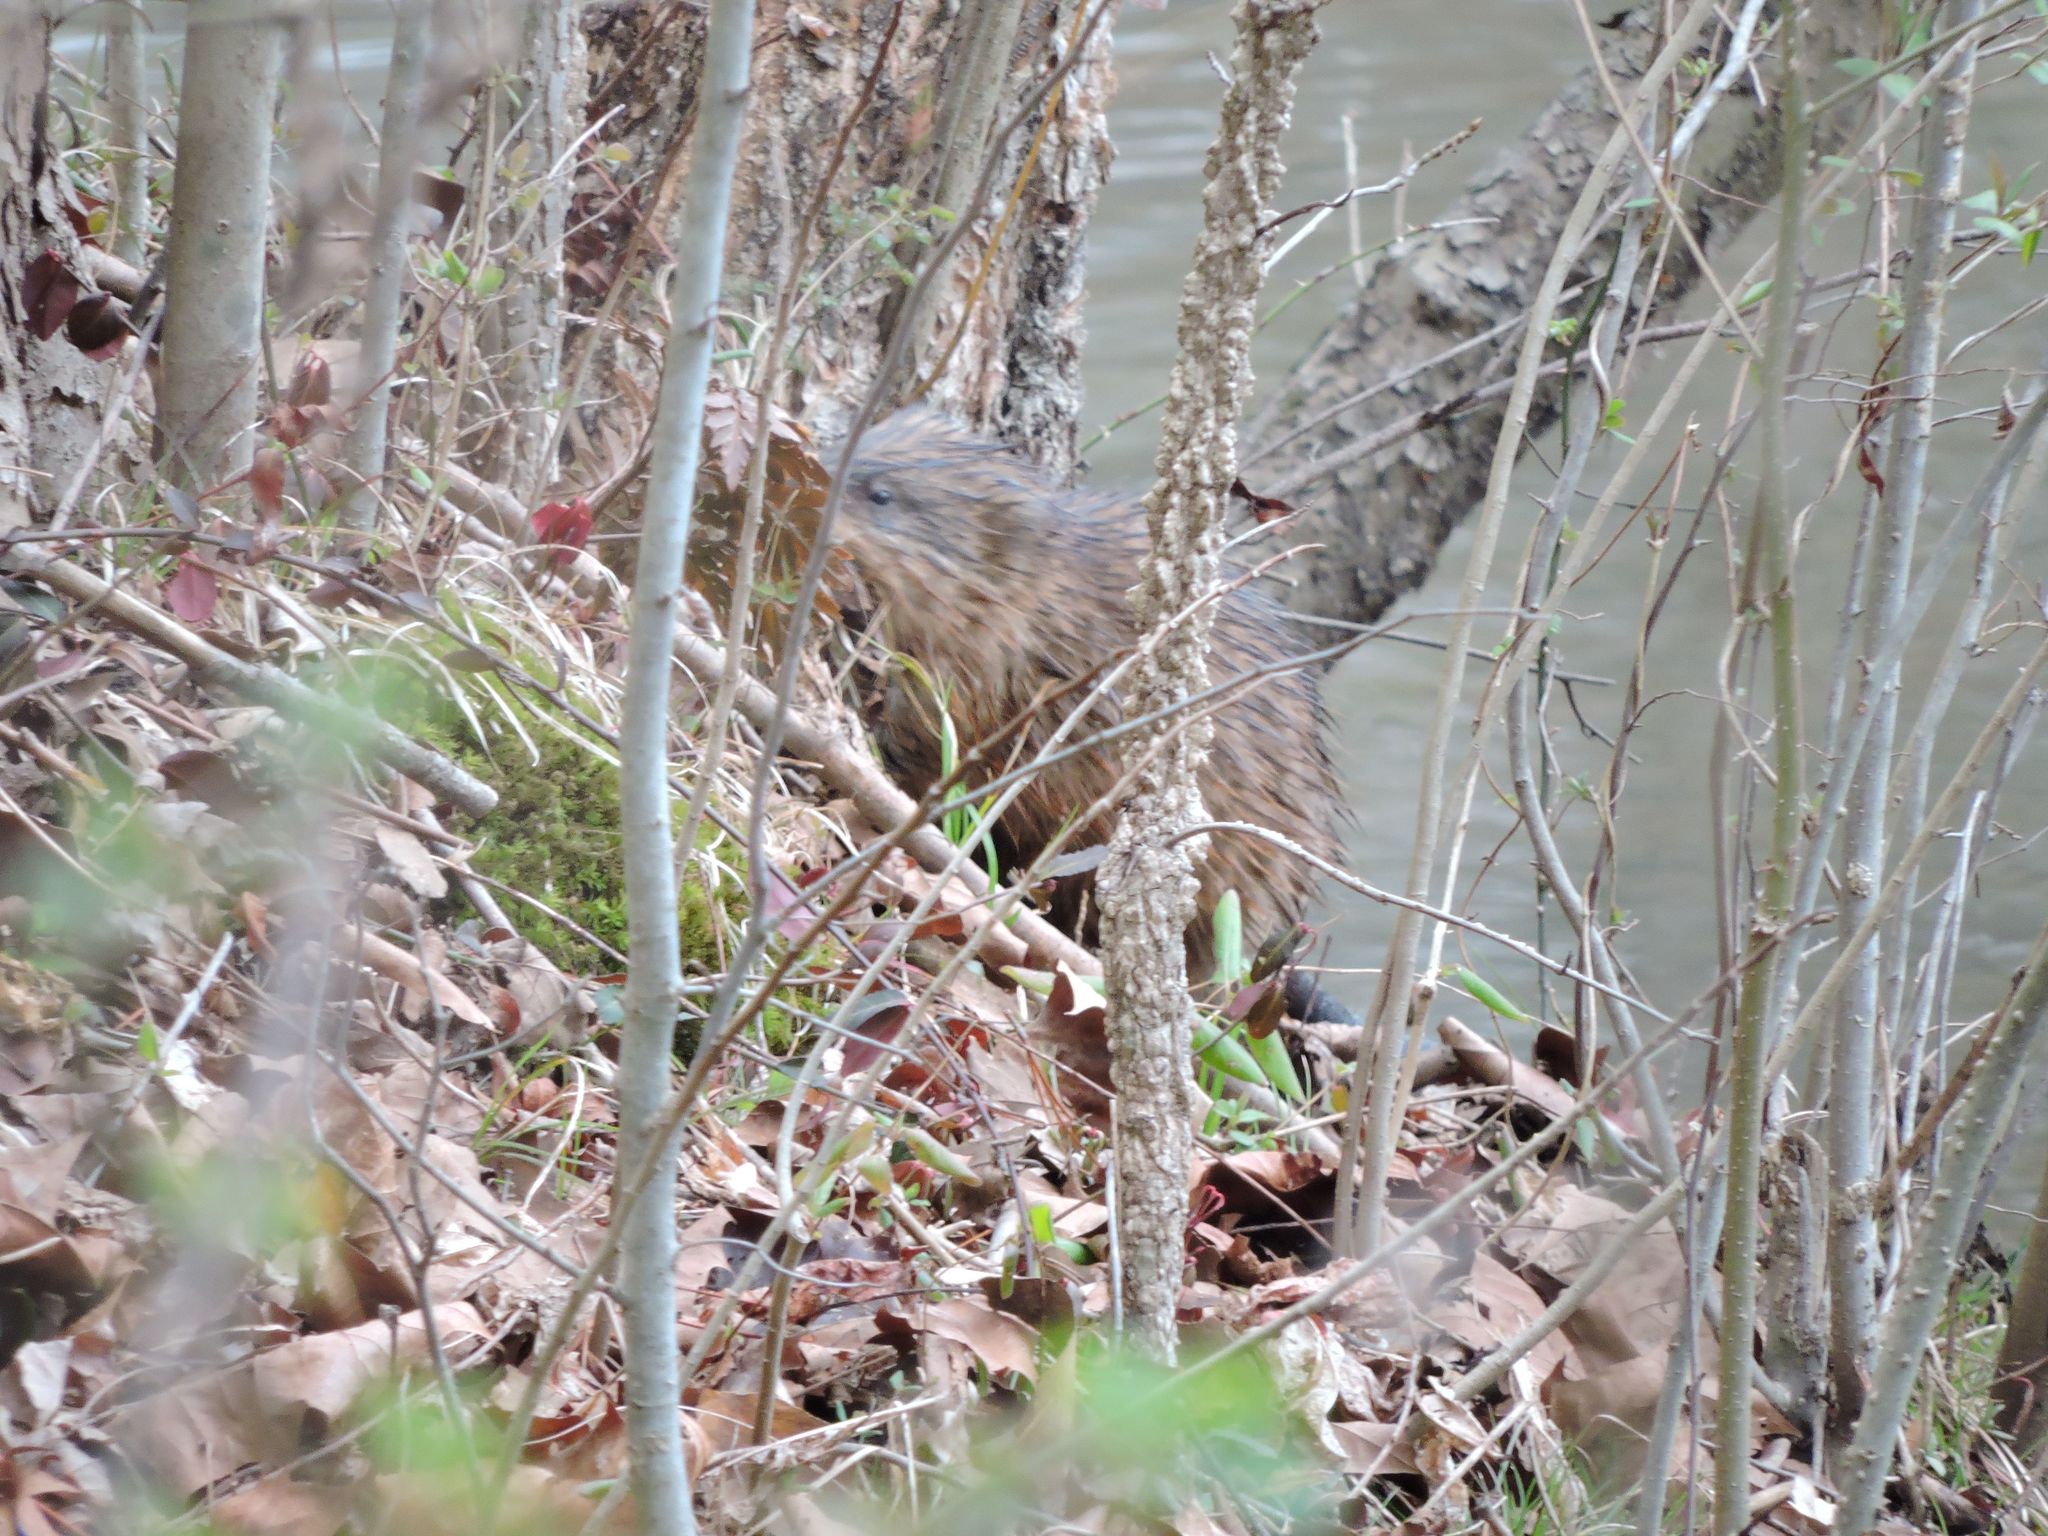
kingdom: Animalia
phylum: Chordata
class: Mammalia
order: Rodentia
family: Cricetidae
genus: Ondatra
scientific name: Ondatra zibethicus
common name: Muskrat
